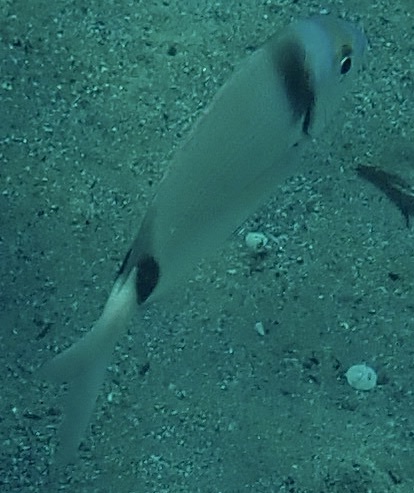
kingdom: Animalia
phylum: Chordata
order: Perciformes
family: Sparidae
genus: Diplodus
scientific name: Diplodus vulgaris
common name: Common two-banded seabream
